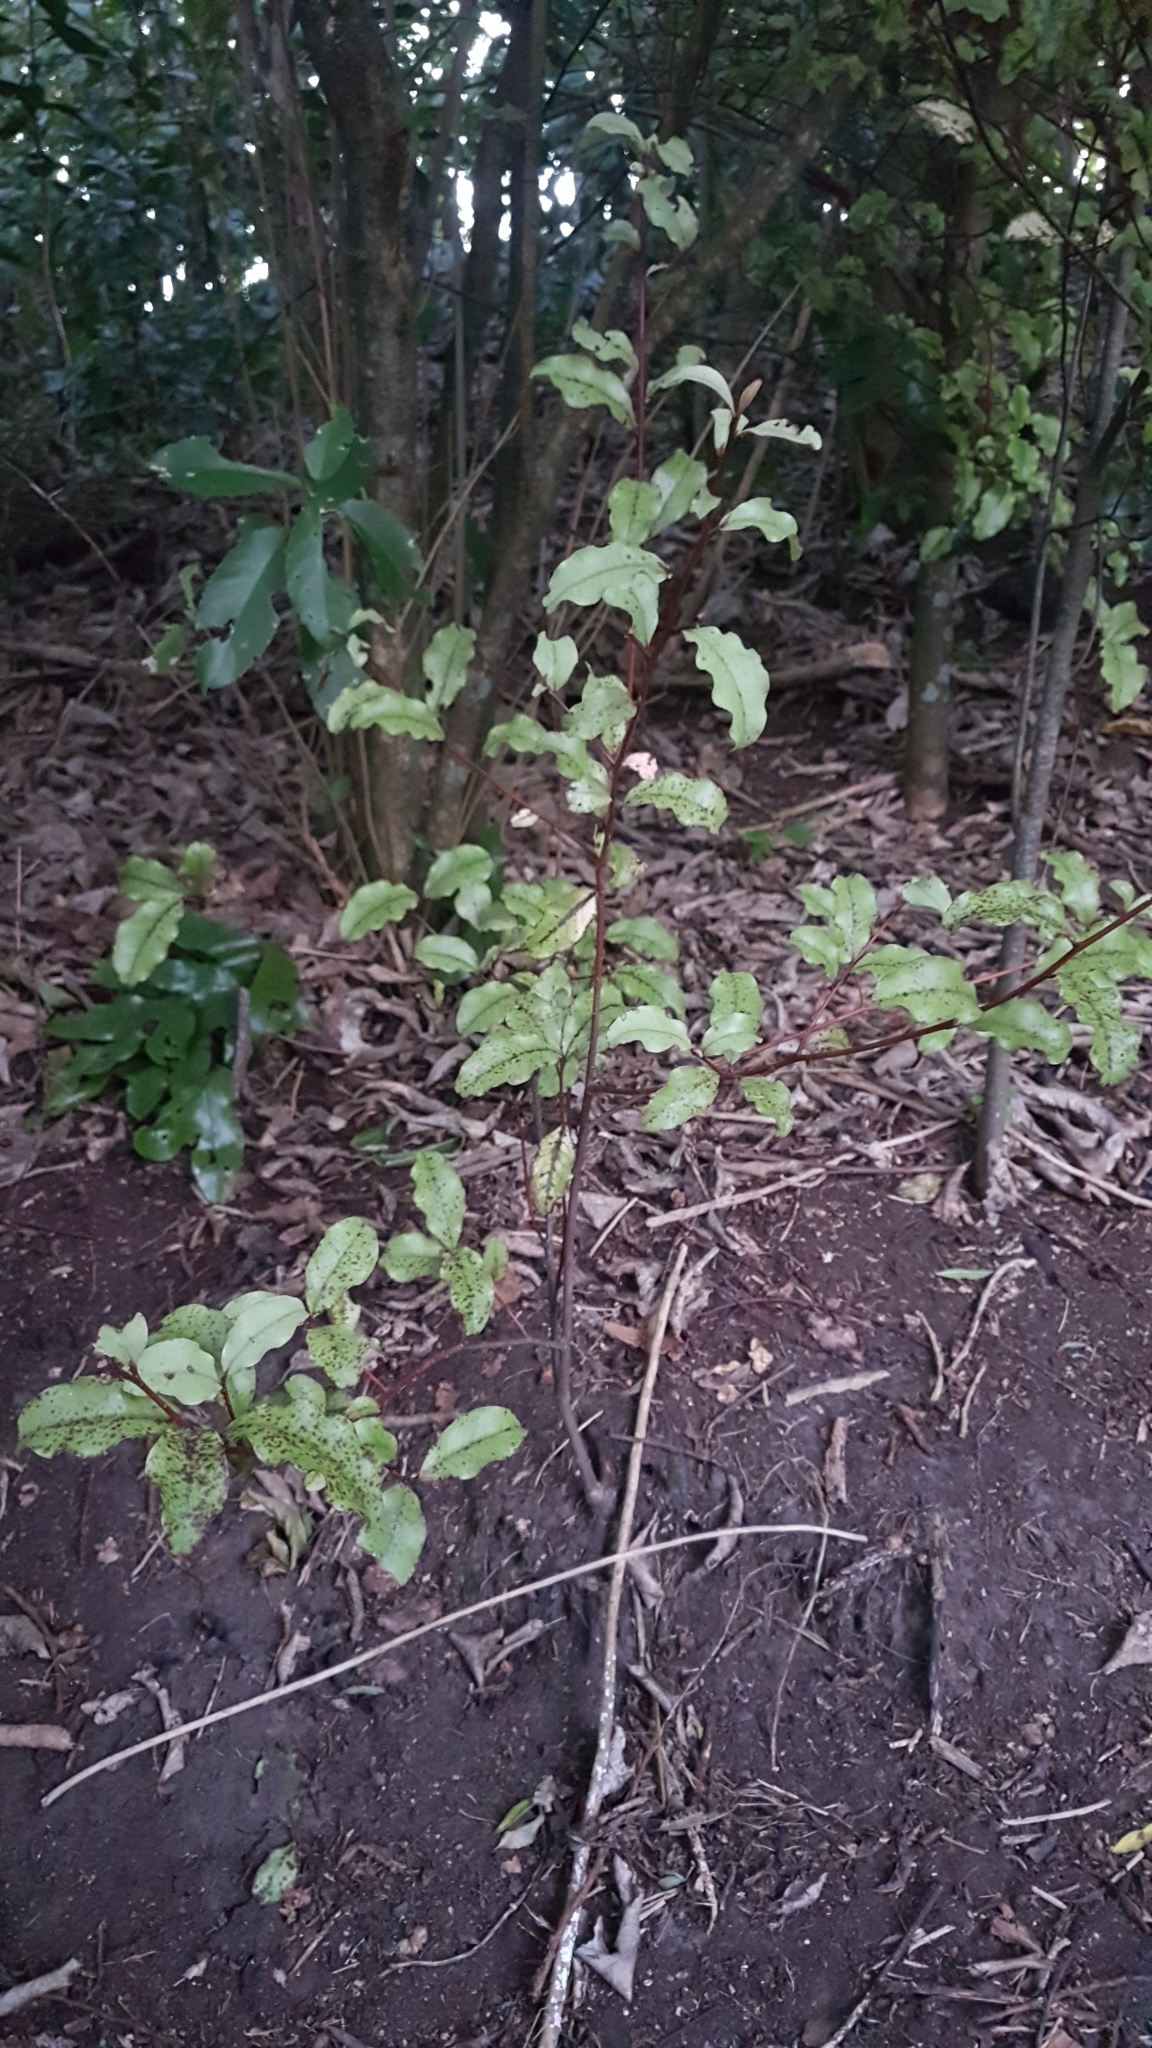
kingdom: Plantae
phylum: Tracheophyta
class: Magnoliopsida
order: Ericales
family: Primulaceae
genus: Myrsine
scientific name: Myrsine australis
